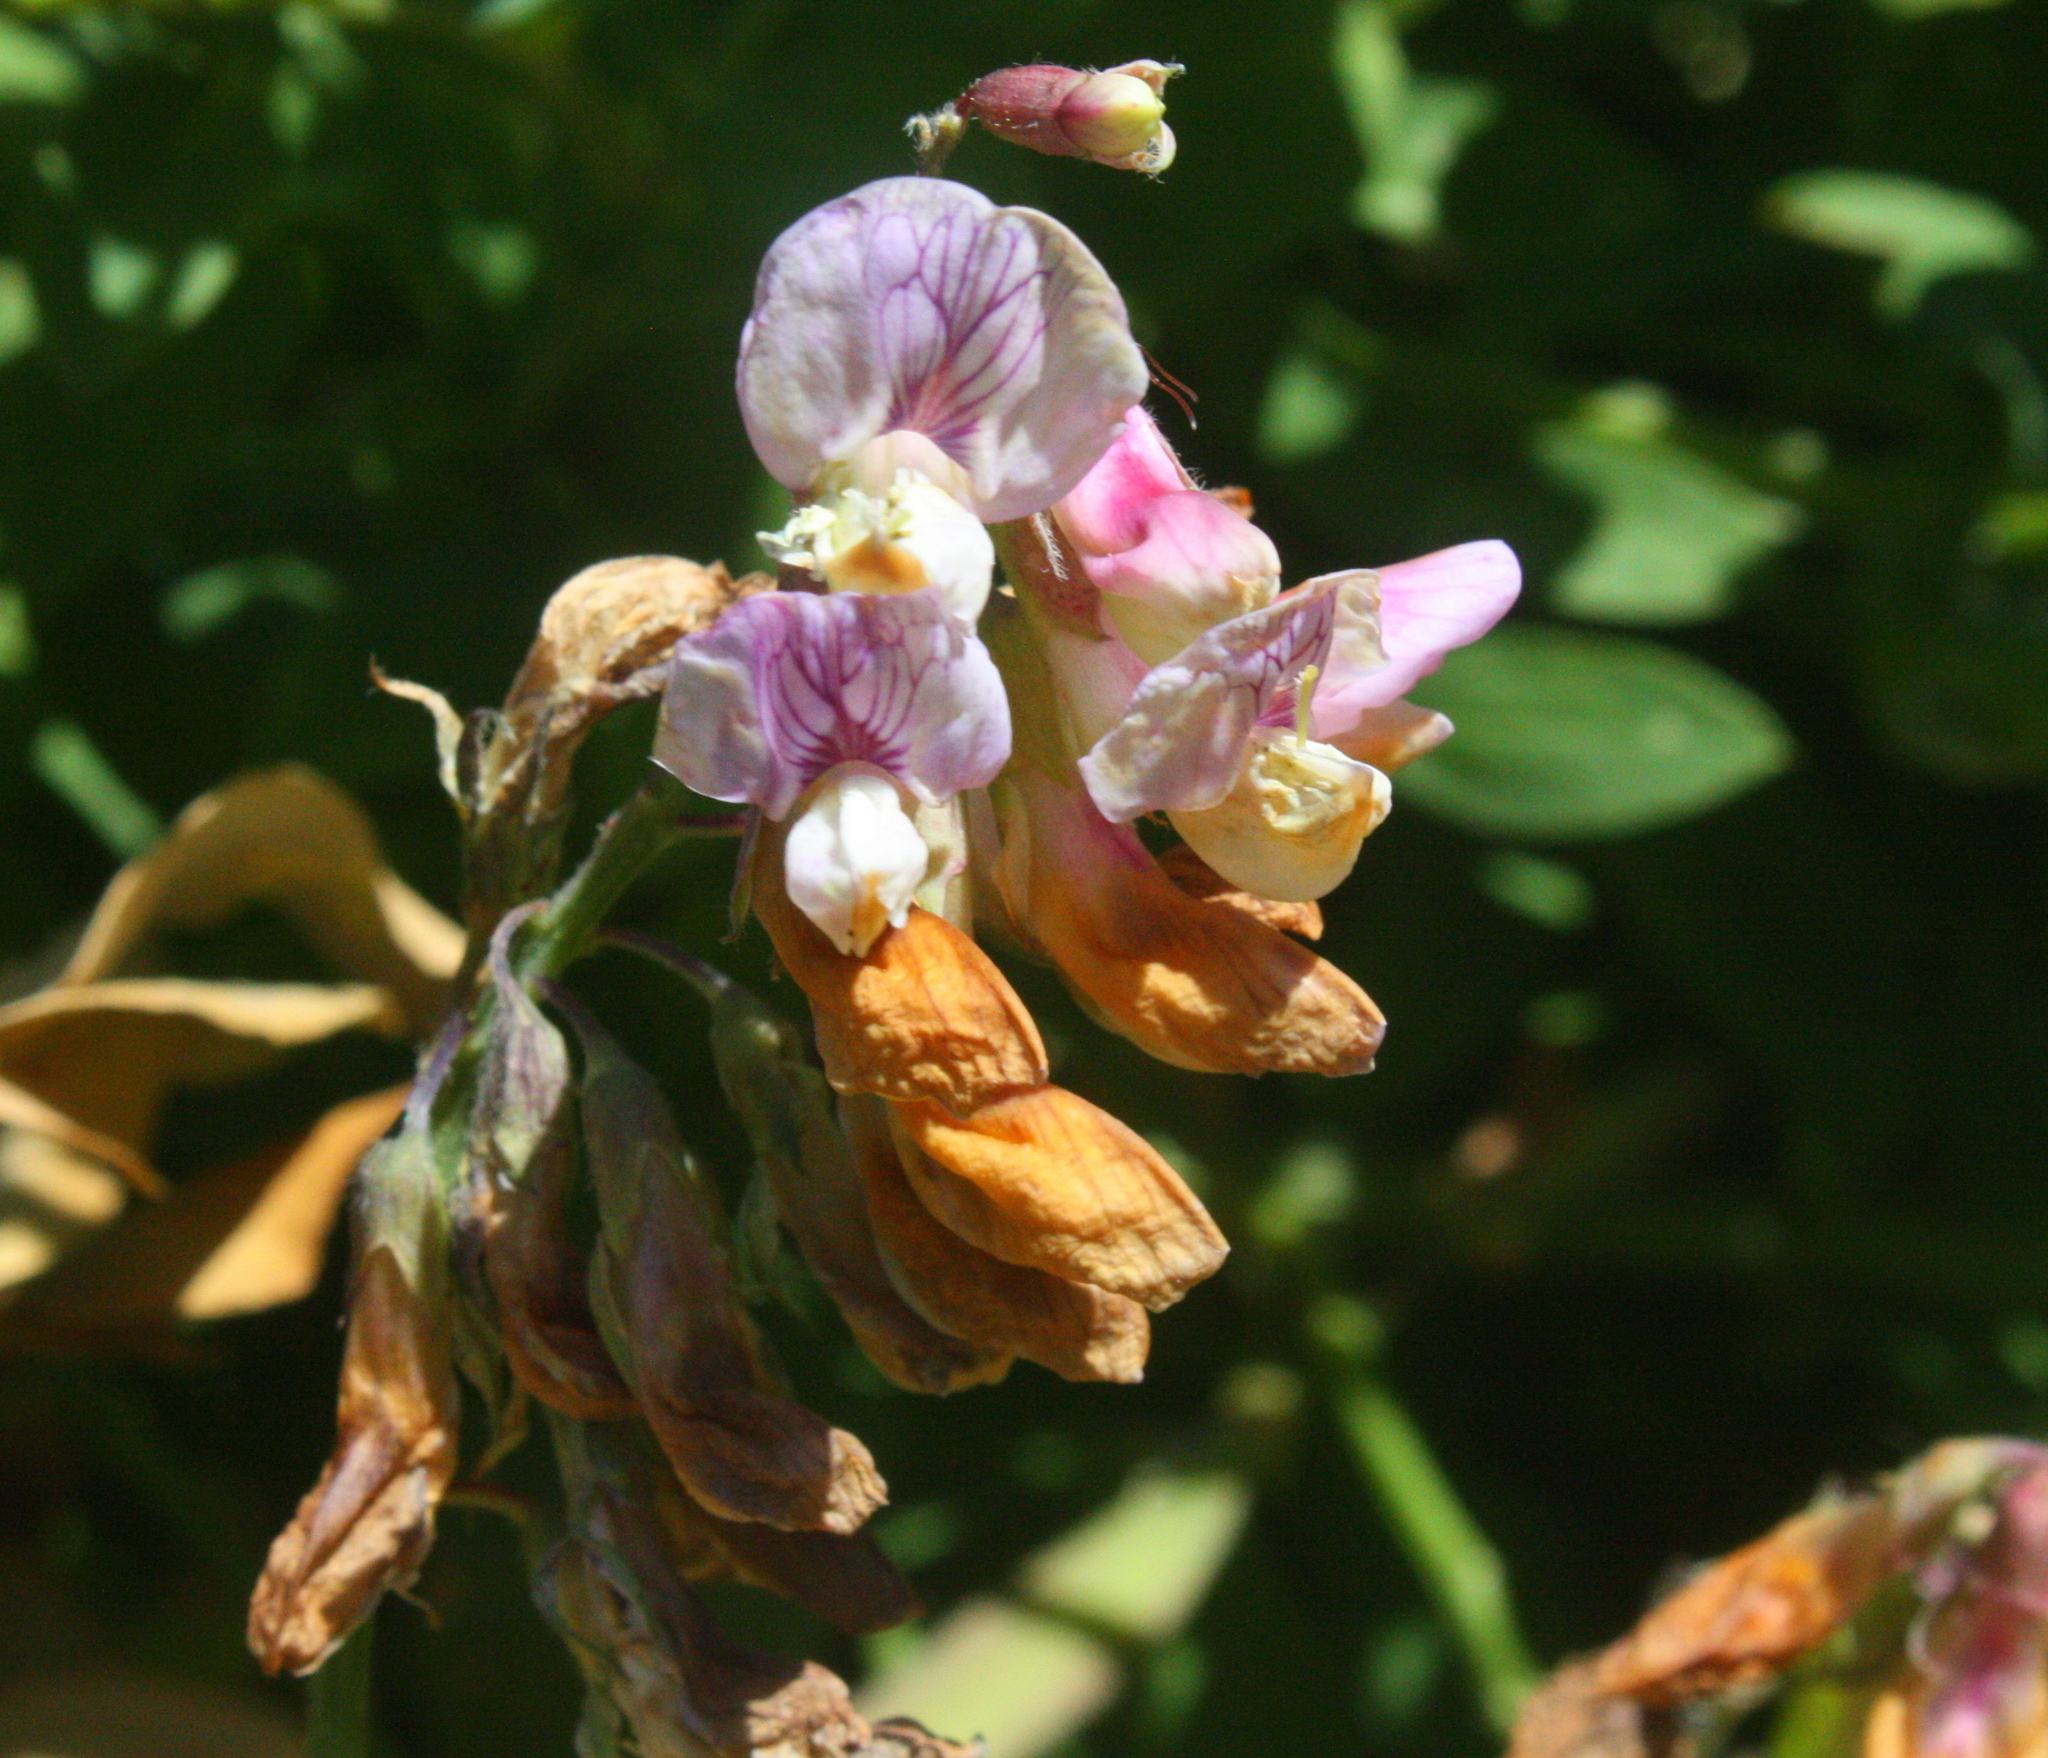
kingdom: Plantae
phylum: Tracheophyta
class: Magnoliopsida
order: Fabales
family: Fabaceae
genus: Lathyrus
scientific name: Lathyrus vestitus
